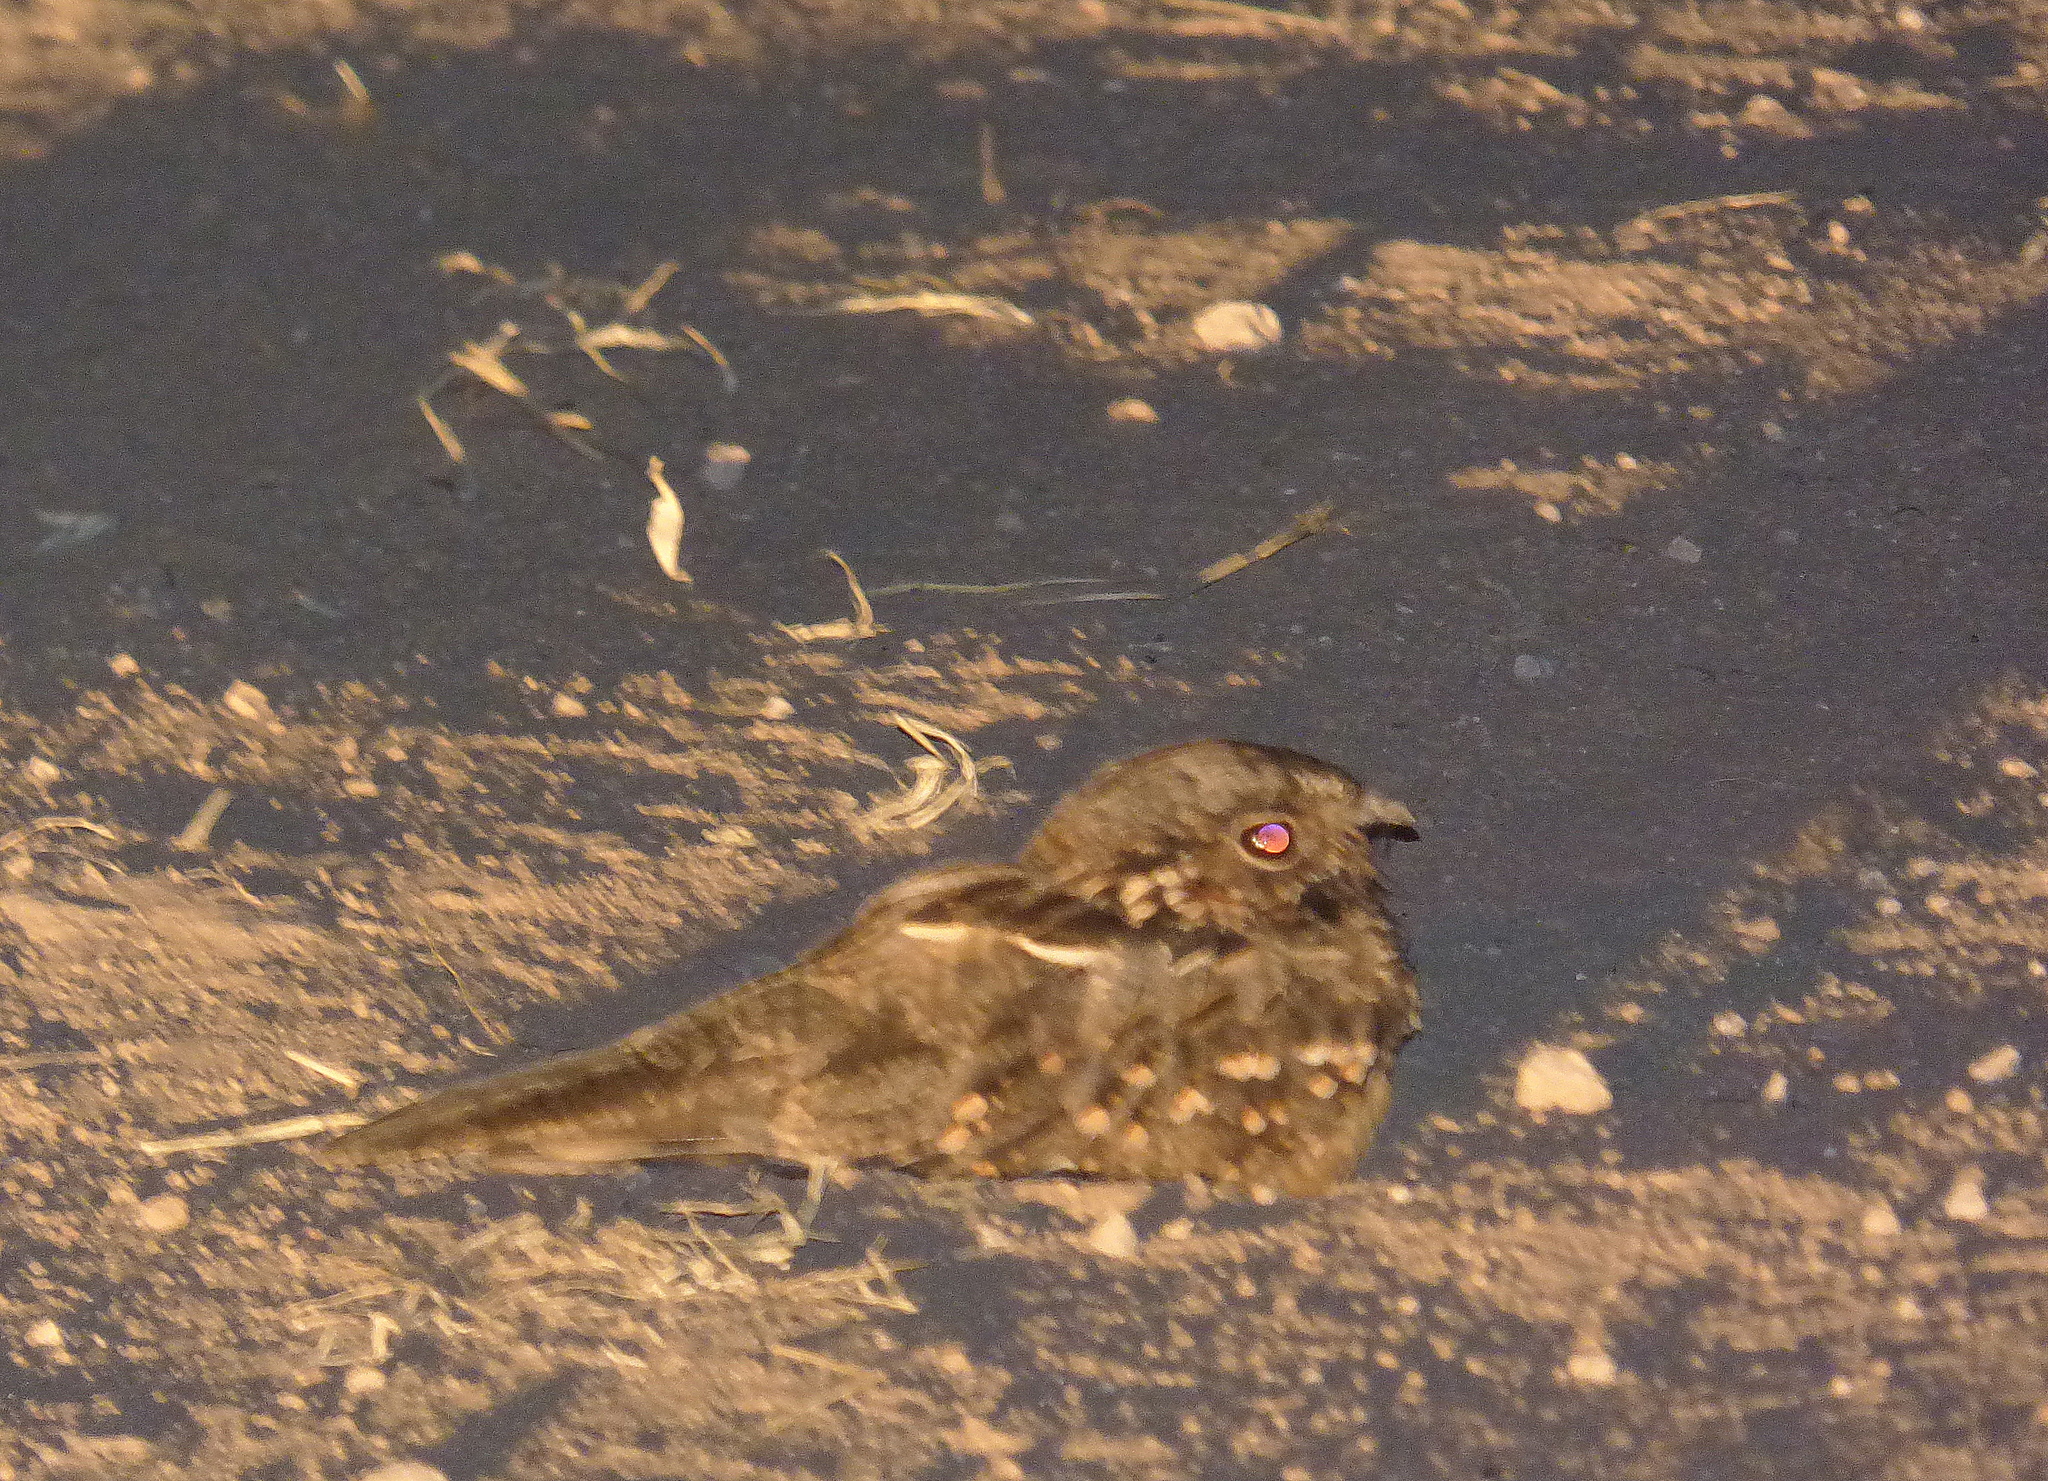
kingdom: Animalia
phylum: Chordata
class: Aves
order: Caprimulgiformes
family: Caprimulgidae
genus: Setopagis
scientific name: Setopagis parvula
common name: Little nightjar
